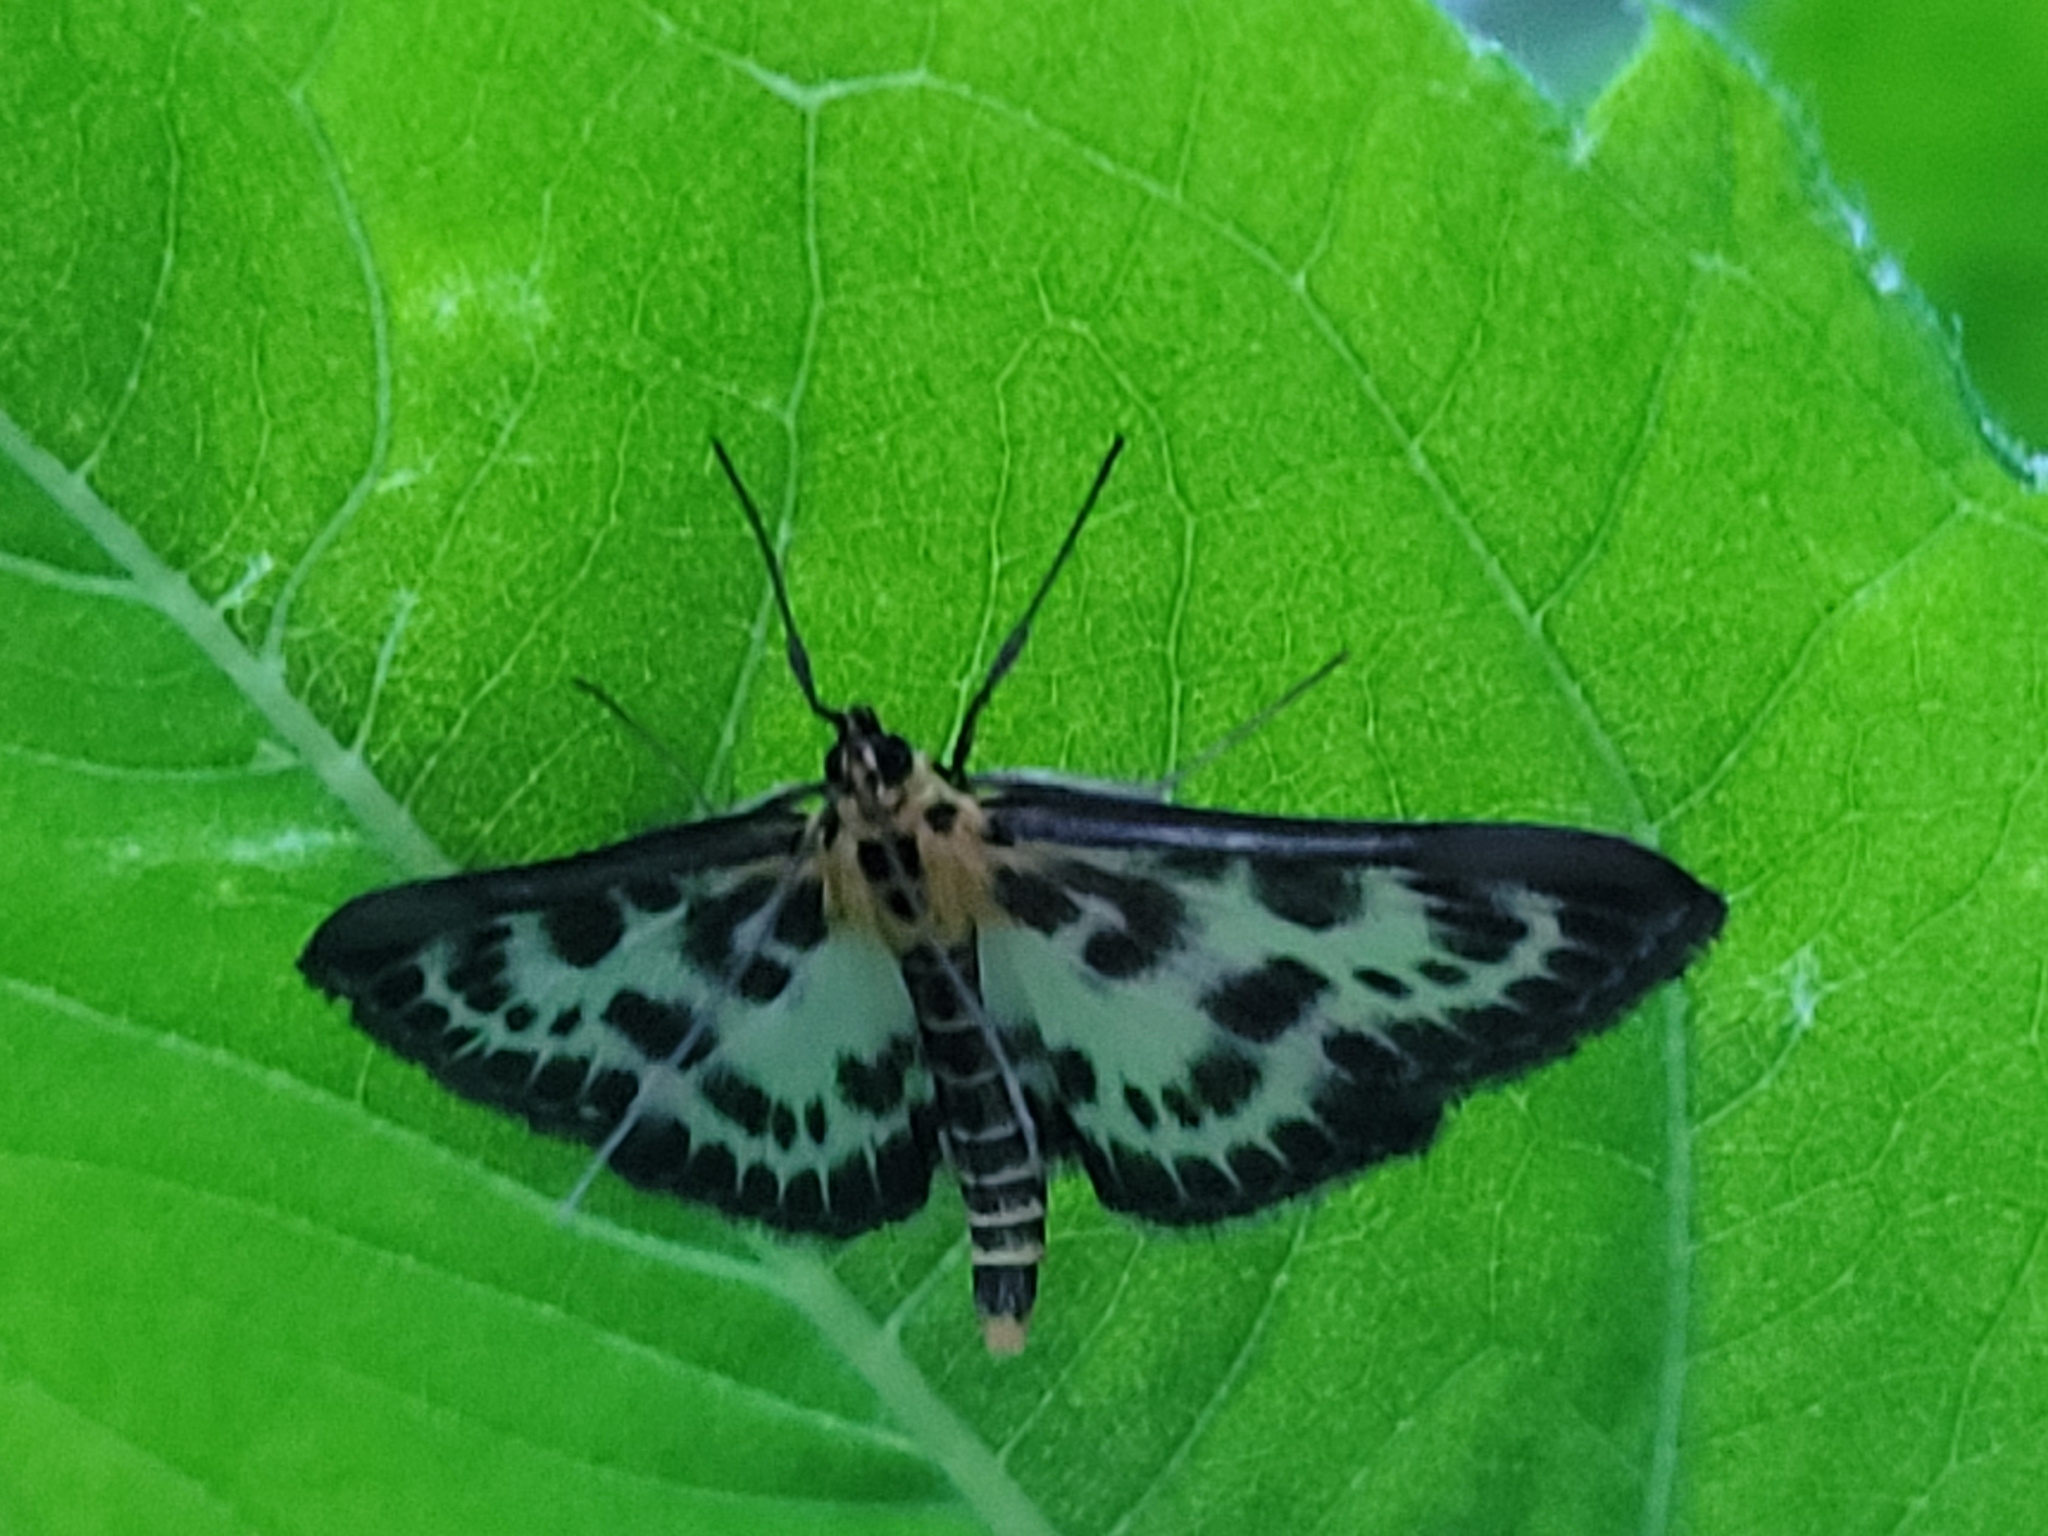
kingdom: Animalia
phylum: Arthropoda
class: Insecta
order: Lepidoptera
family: Crambidae
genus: Anania
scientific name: Anania hortulata
